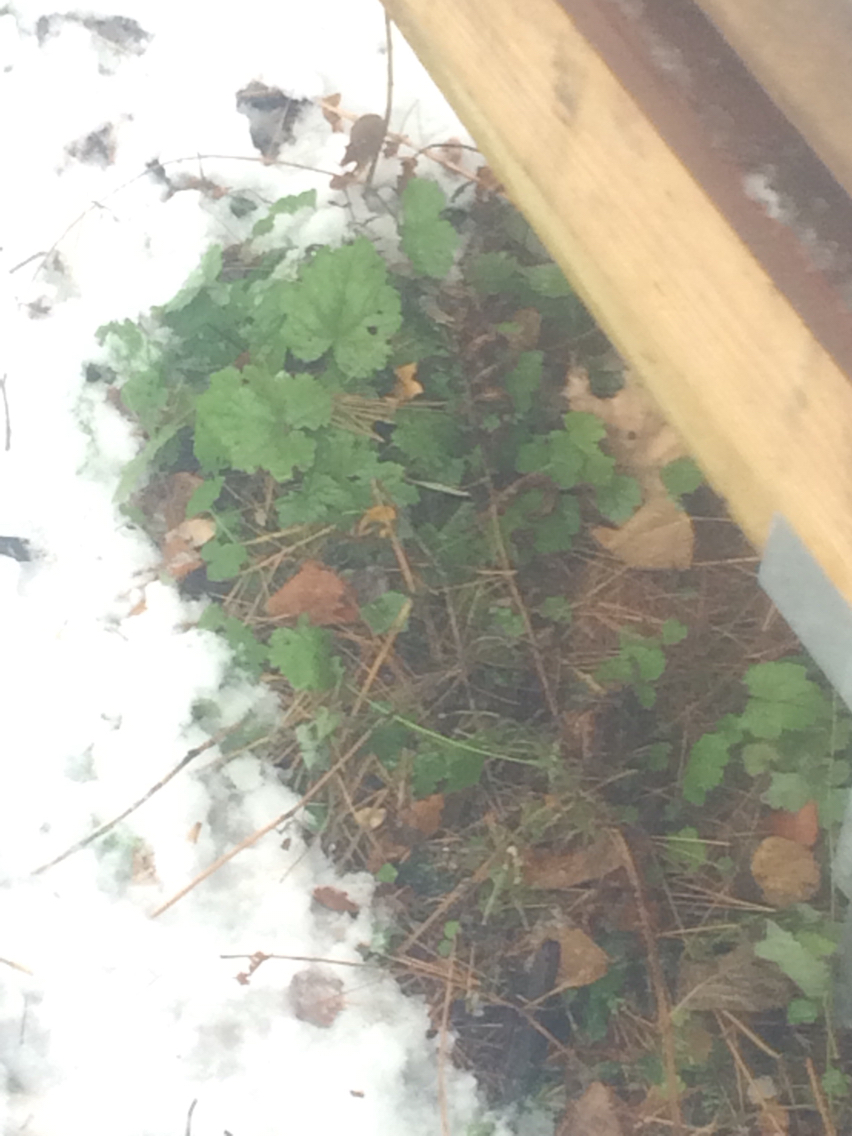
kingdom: Plantae
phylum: Tracheophyta
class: Magnoliopsida
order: Saxifragales
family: Saxifragaceae
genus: Tiarella
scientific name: Tiarella stolonifera
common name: Stoloniferous foamflower
